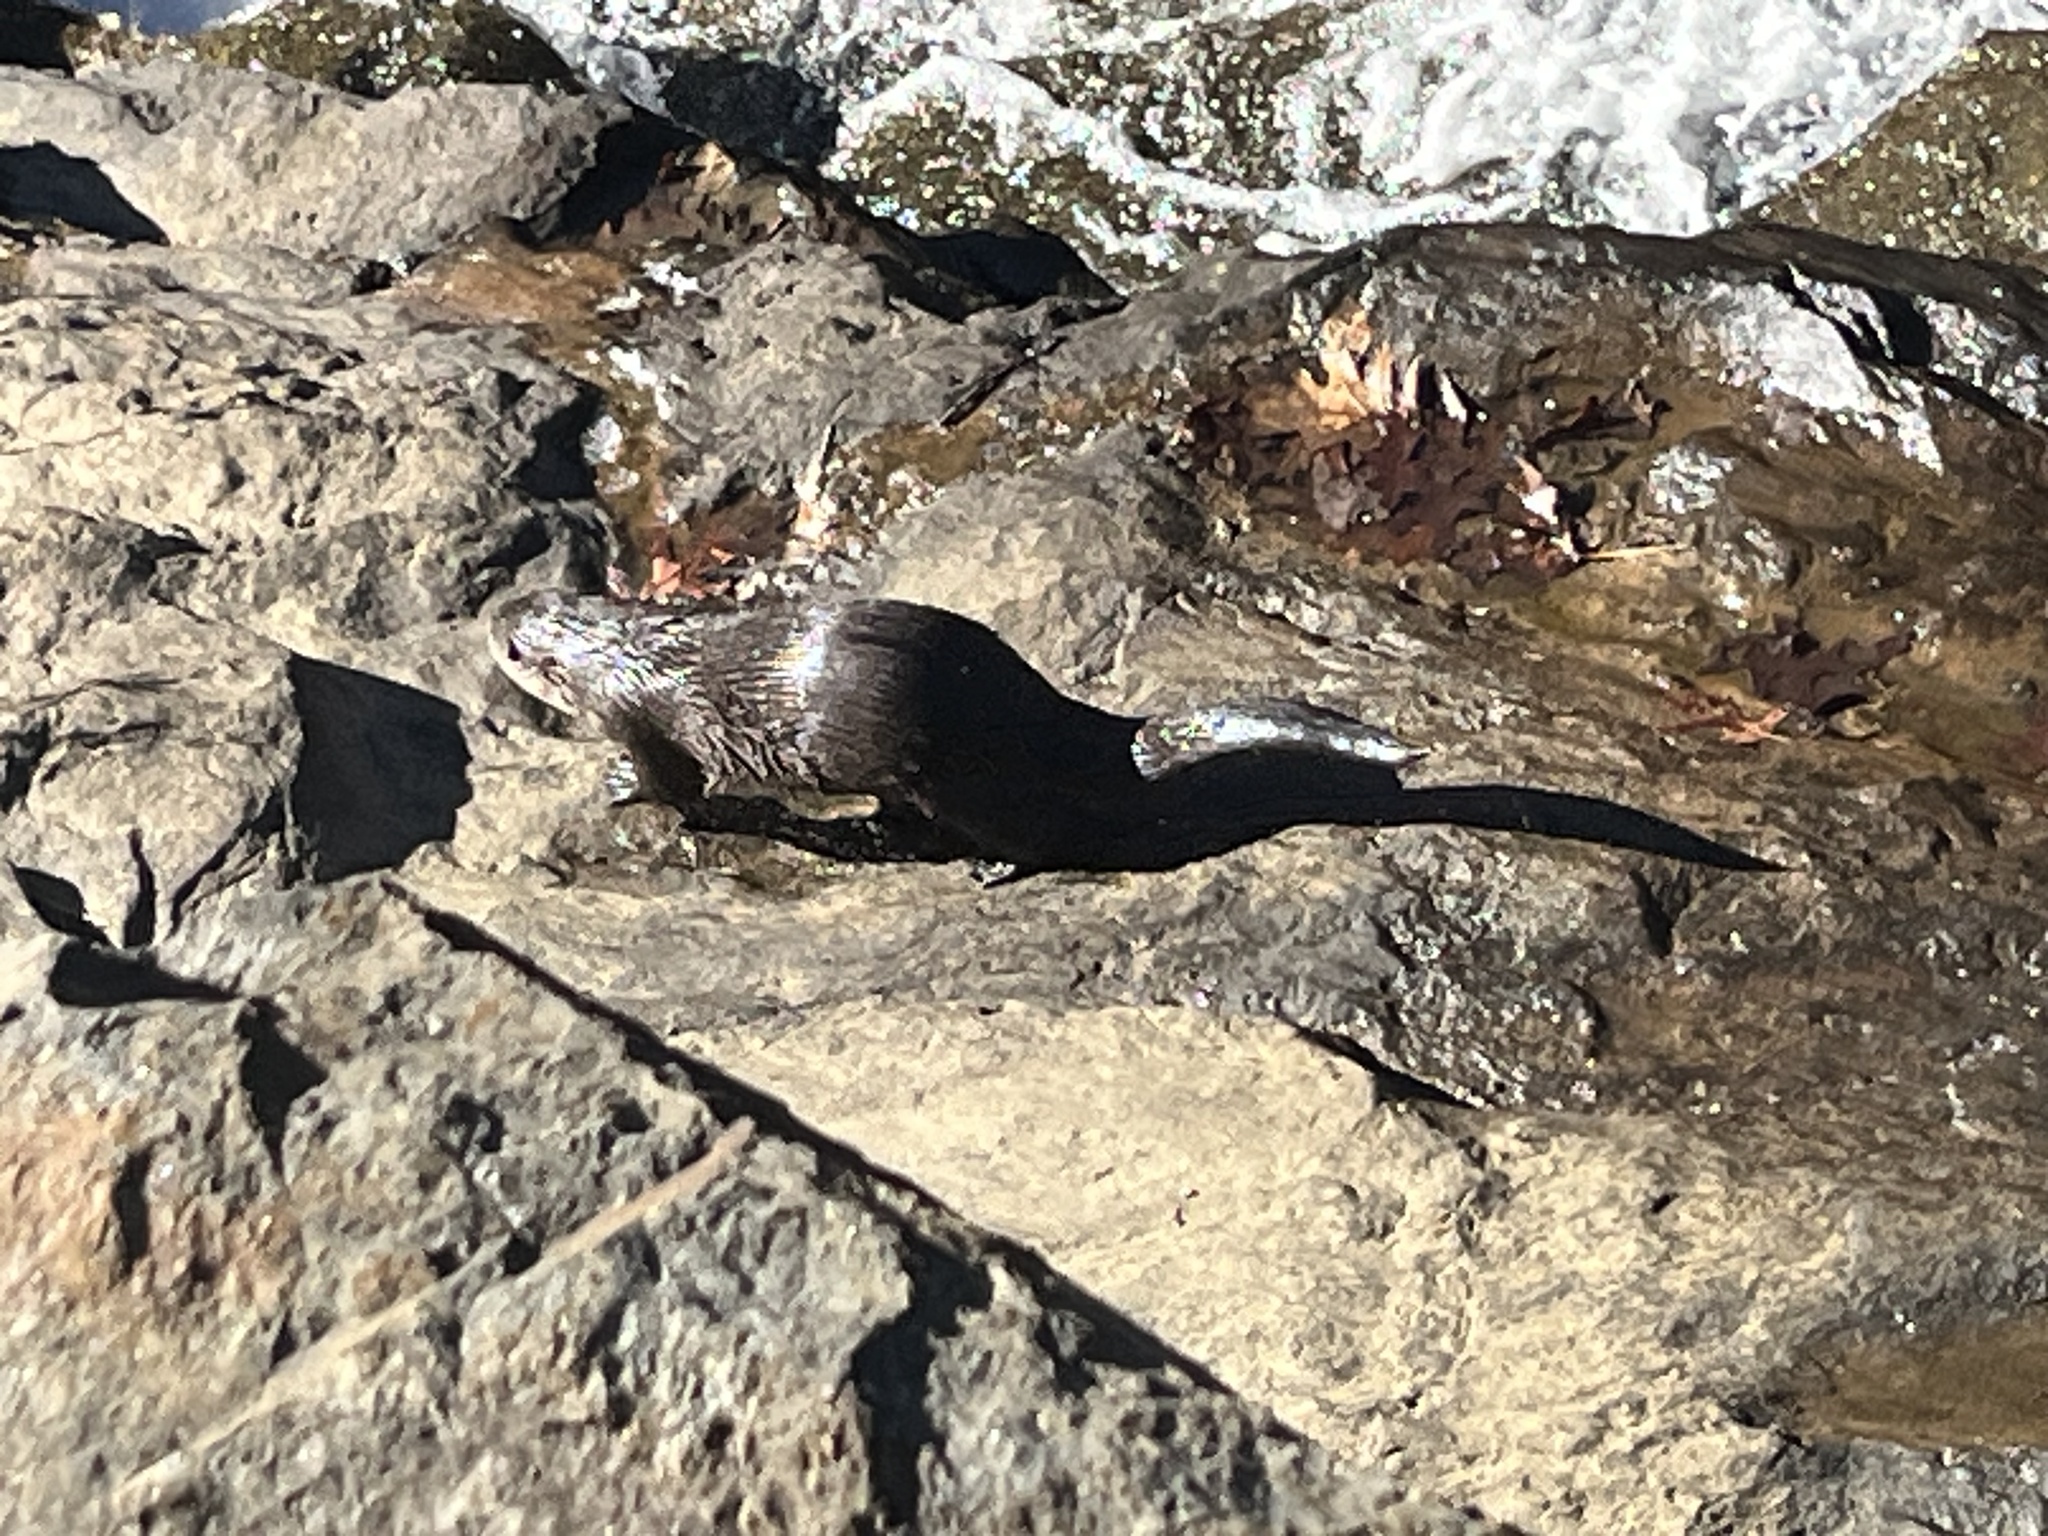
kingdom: Animalia
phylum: Chordata
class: Mammalia
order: Carnivora
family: Mustelidae
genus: Lontra
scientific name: Lontra canadensis
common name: North american river otter
